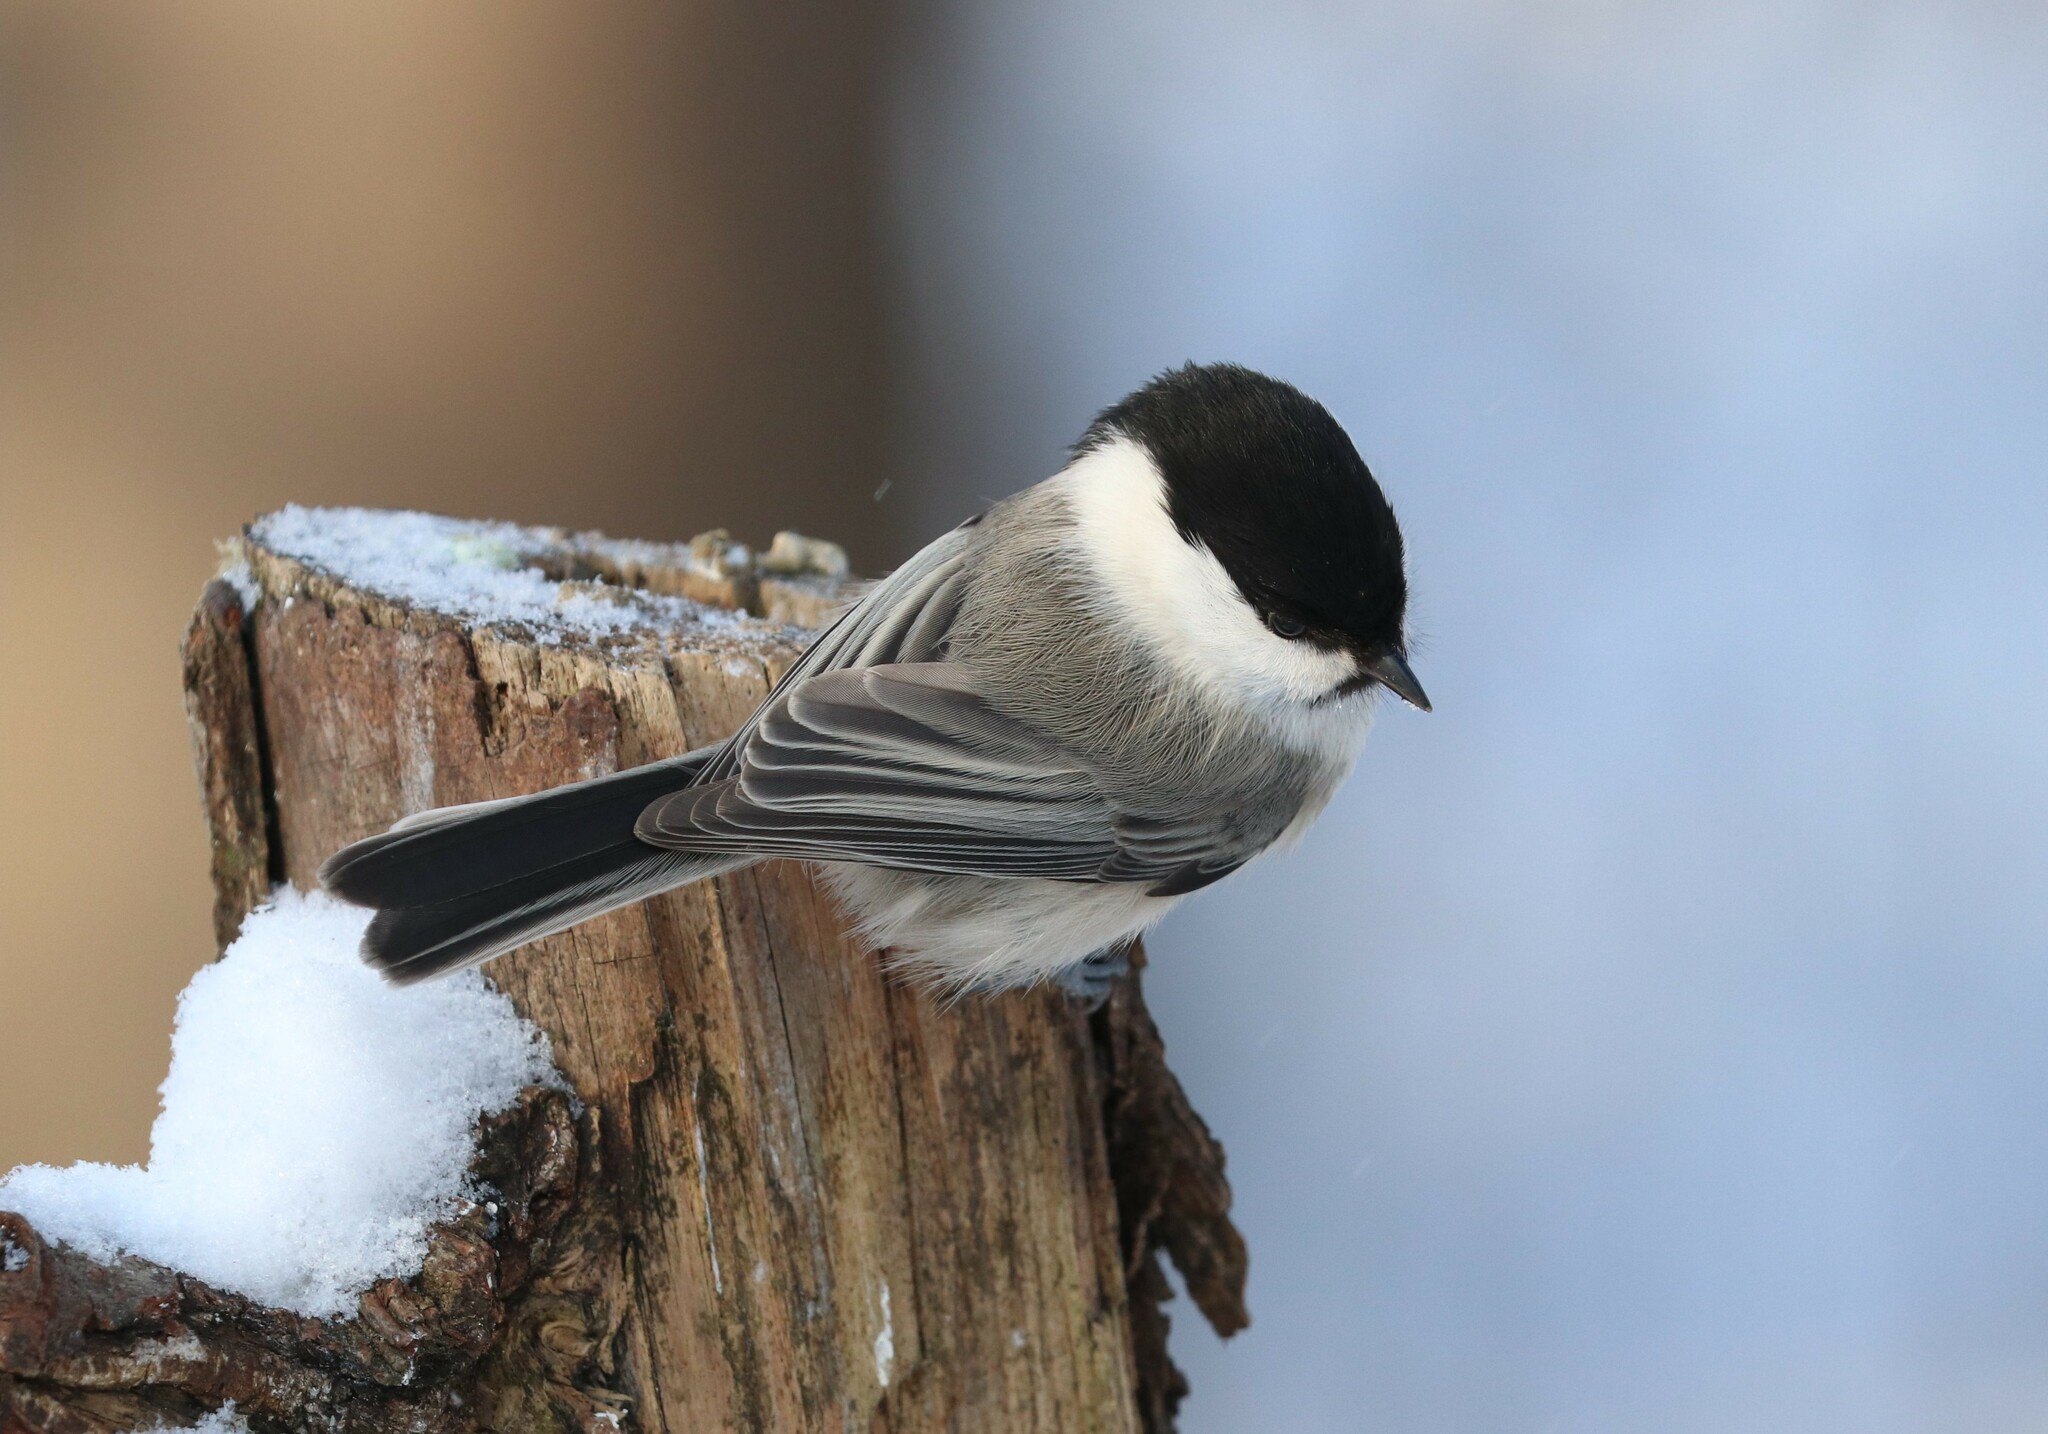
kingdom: Animalia
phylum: Chordata
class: Aves
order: Passeriformes
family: Paridae
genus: Poecile
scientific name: Poecile montanus
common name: Willow tit
